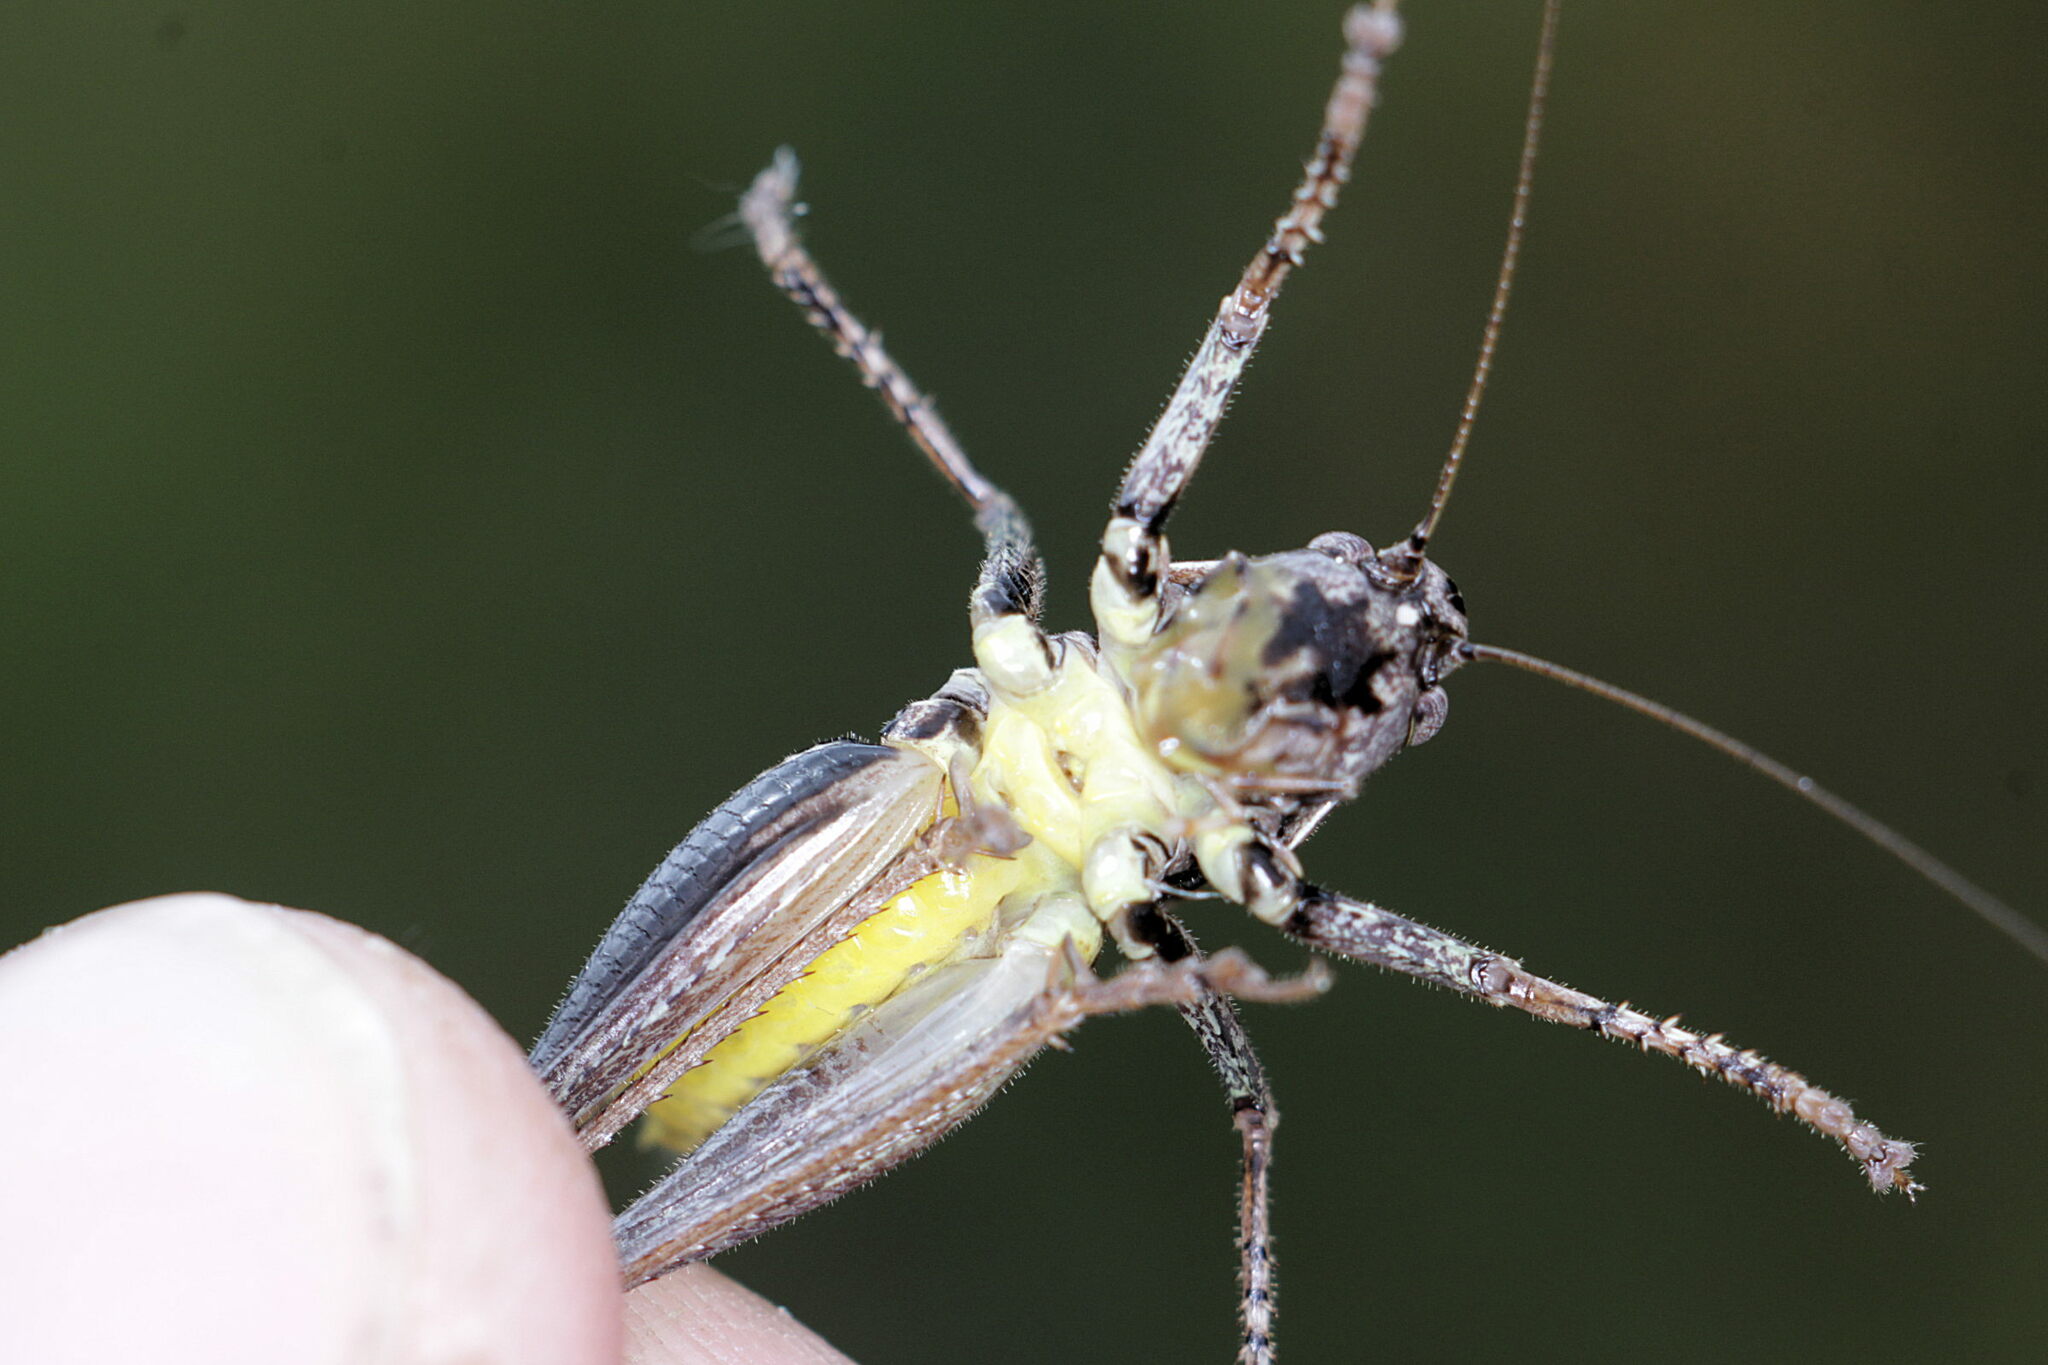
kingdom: Animalia
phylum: Arthropoda
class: Insecta
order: Orthoptera
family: Tettigoniidae
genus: Pholidoptera
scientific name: Pholidoptera griseoaptera
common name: Dark bush-cricket
